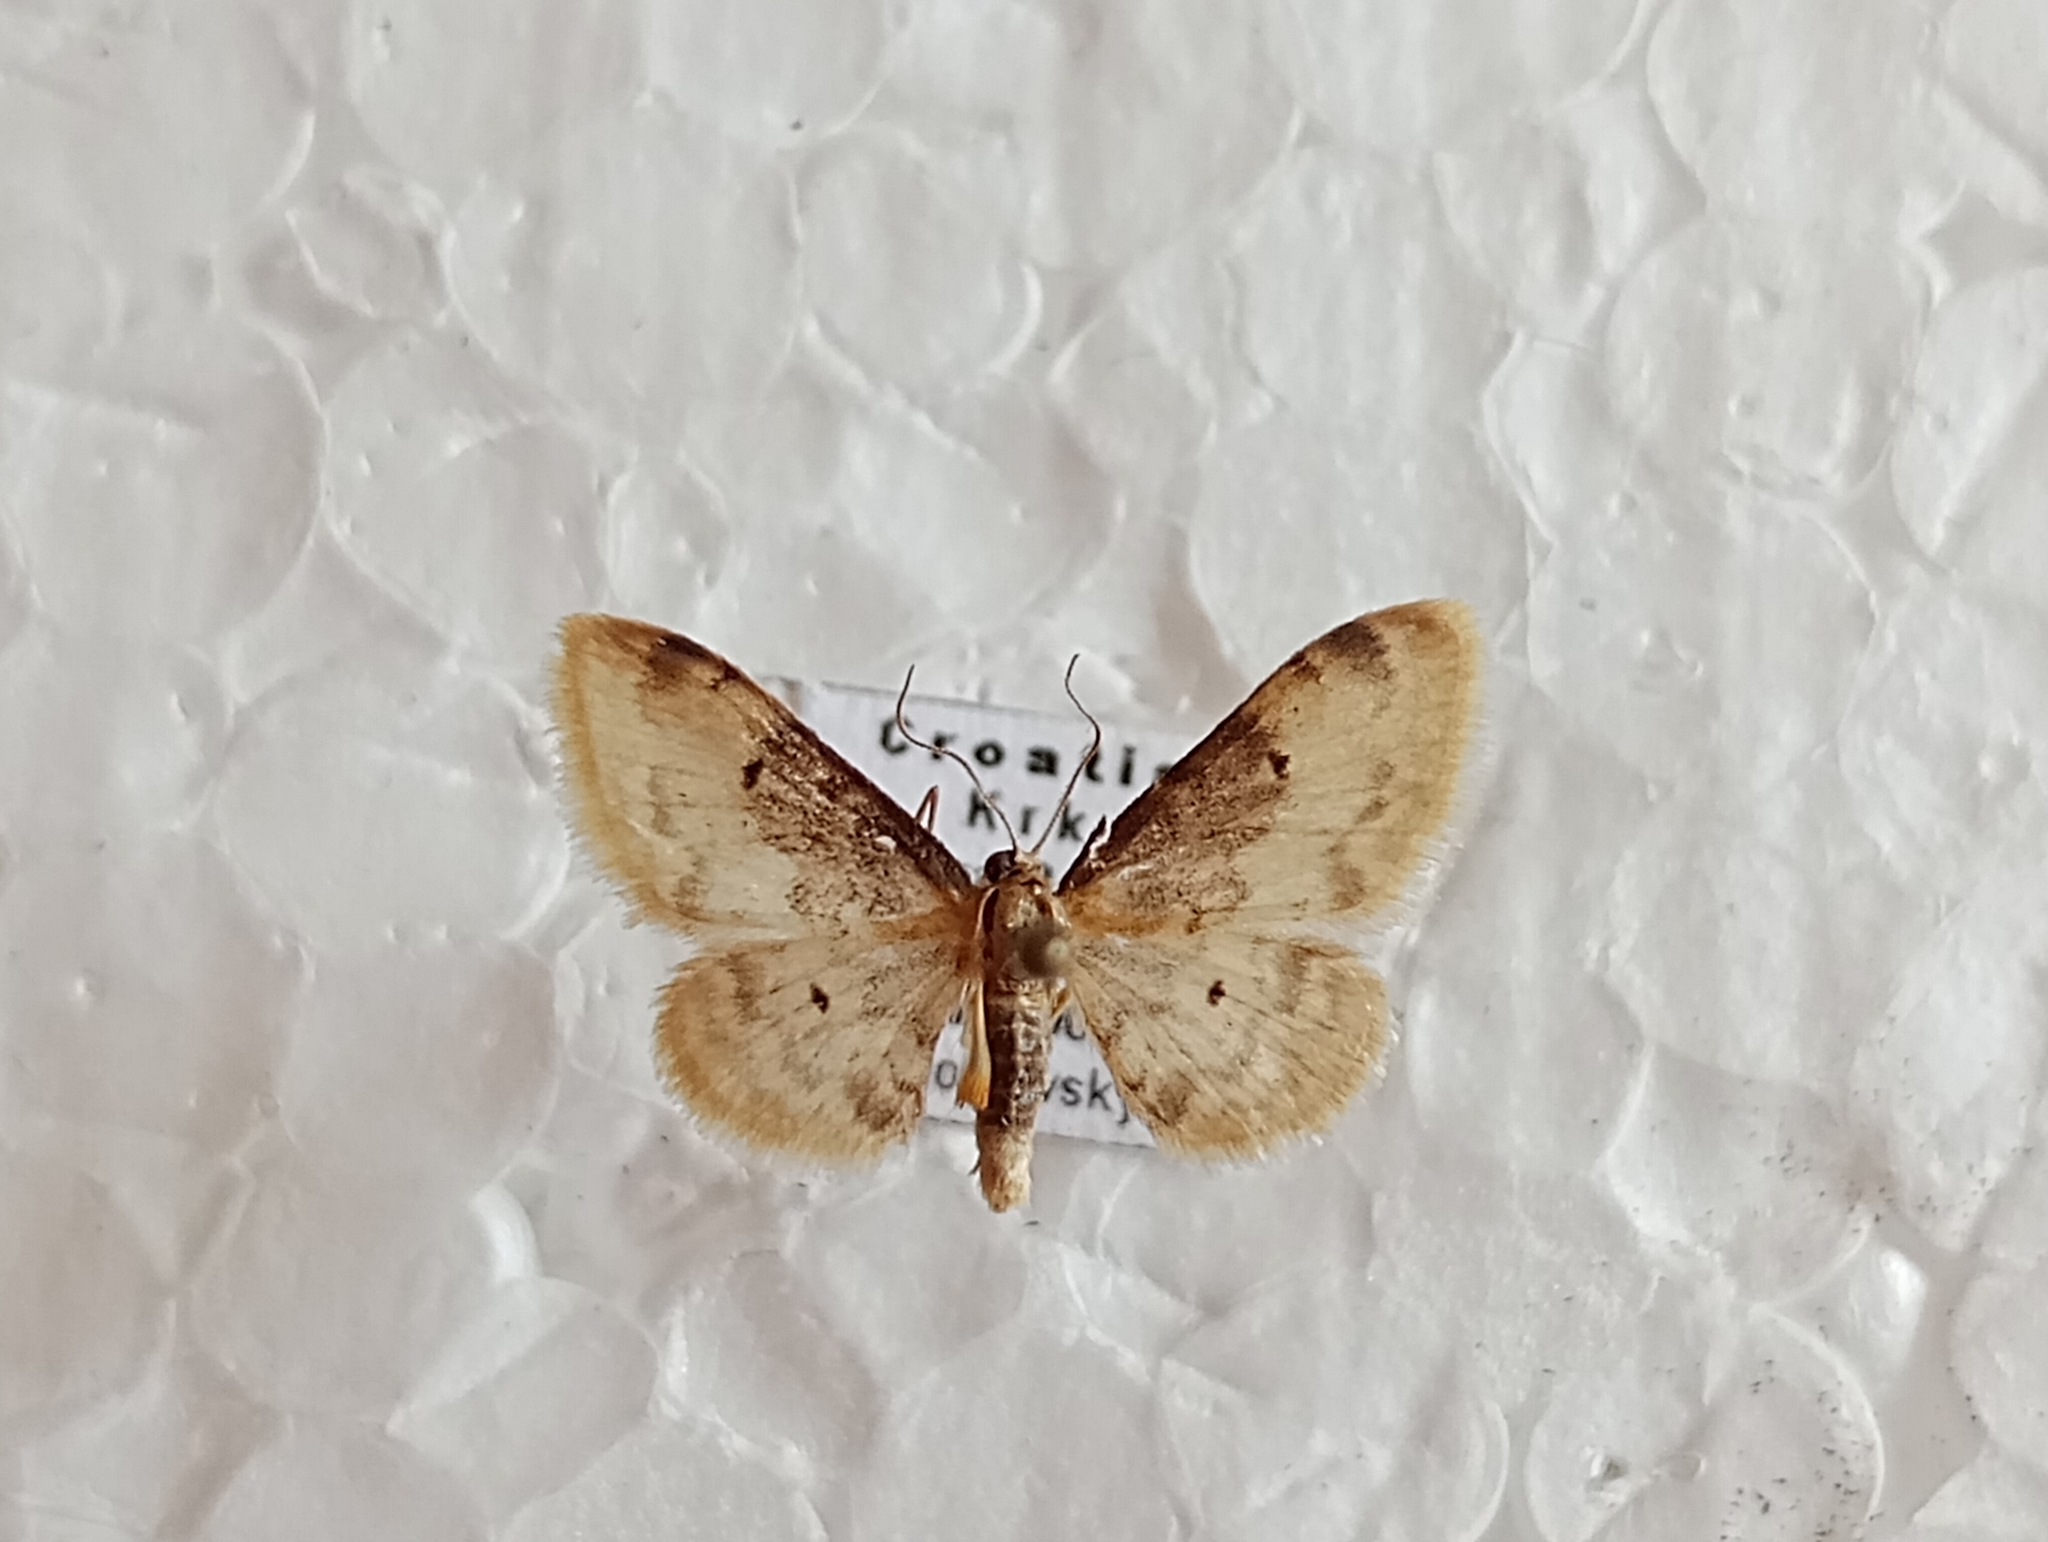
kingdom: Animalia
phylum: Arthropoda
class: Insecta
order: Lepidoptera
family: Geometridae
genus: Idaea
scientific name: Idaea filicata
